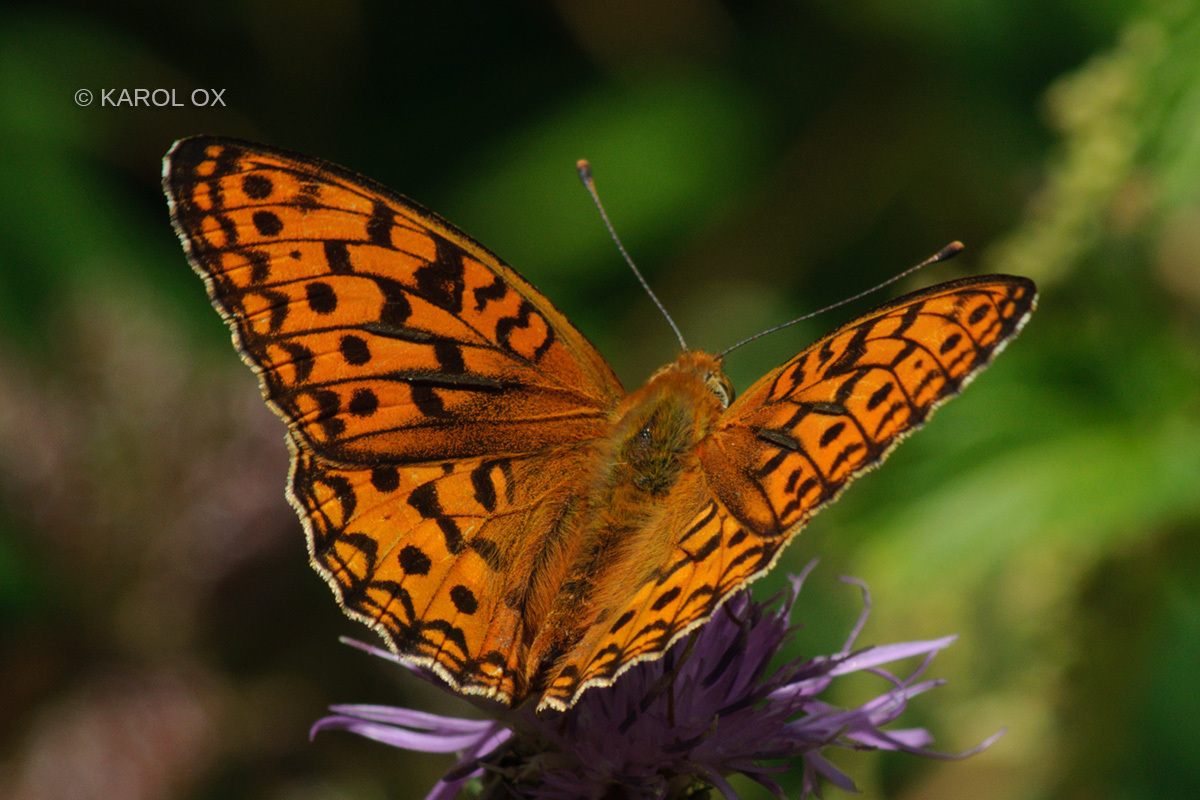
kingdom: Animalia
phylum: Arthropoda
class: Insecta
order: Lepidoptera
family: Nymphalidae
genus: Fabriciana
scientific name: Fabriciana adippe
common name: High brown fritillary
